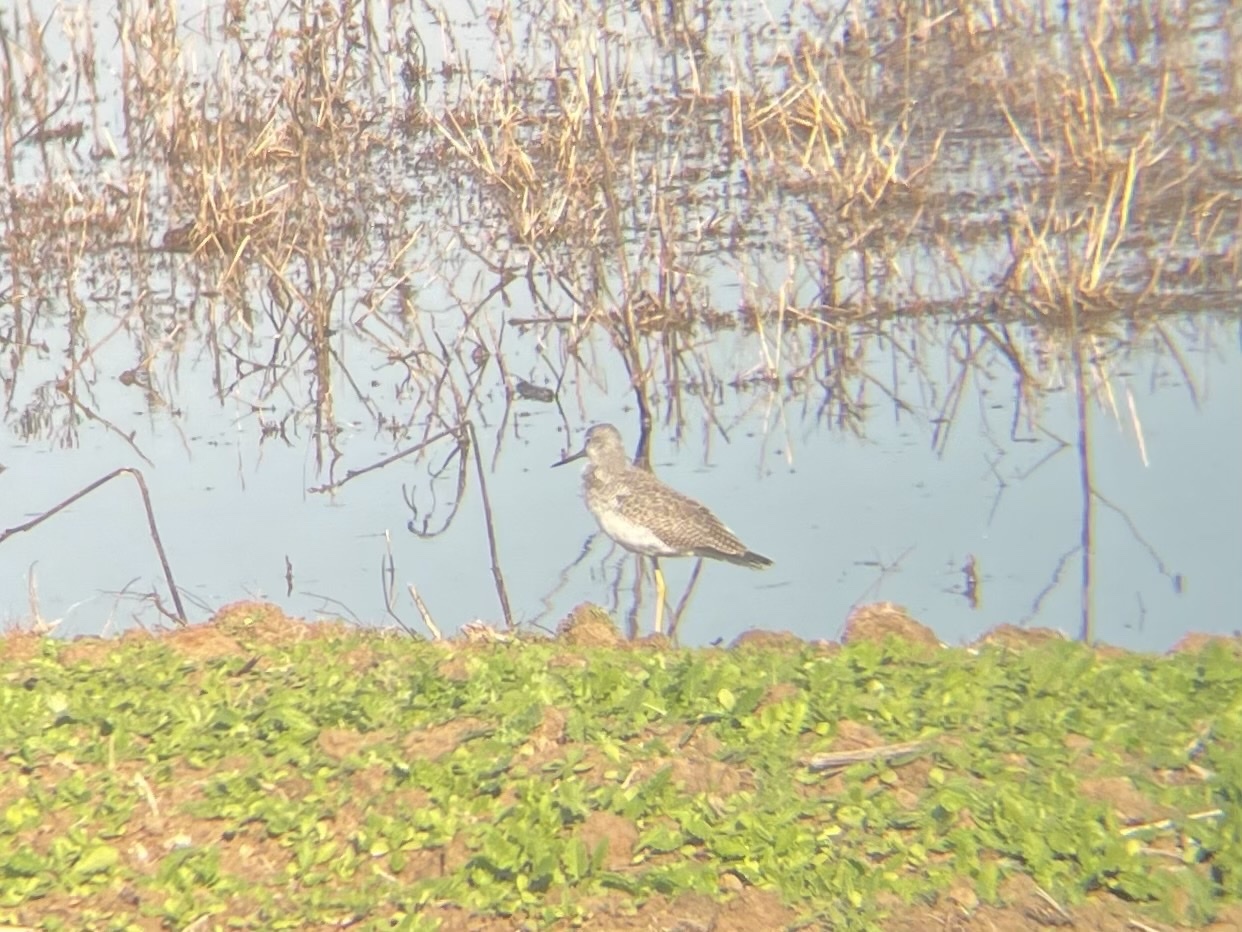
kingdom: Animalia
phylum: Chordata
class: Aves
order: Charadriiformes
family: Scolopacidae
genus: Tringa
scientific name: Tringa melanoleuca
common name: Greater yellowlegs
